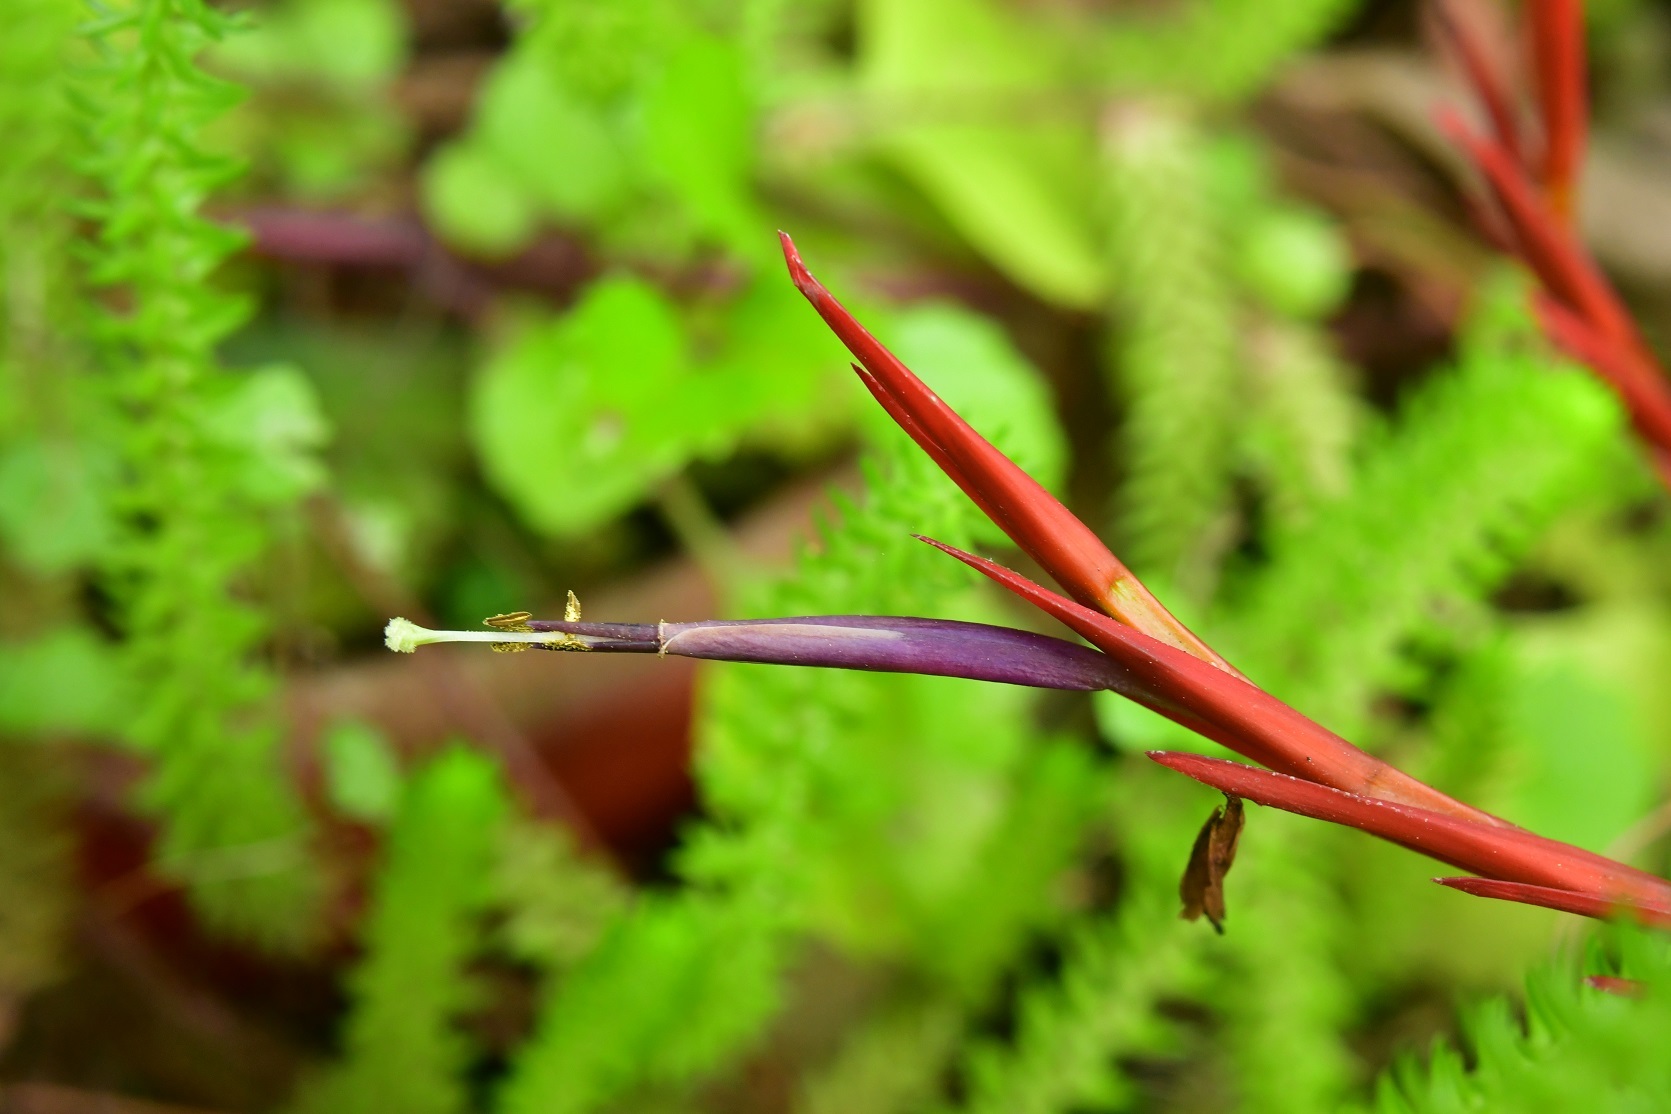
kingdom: Plantae
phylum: Tracheophyta
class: Liliopsida
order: Poales
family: Bromeliaceae
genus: Tillandsia
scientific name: Tillandsia flabellata
